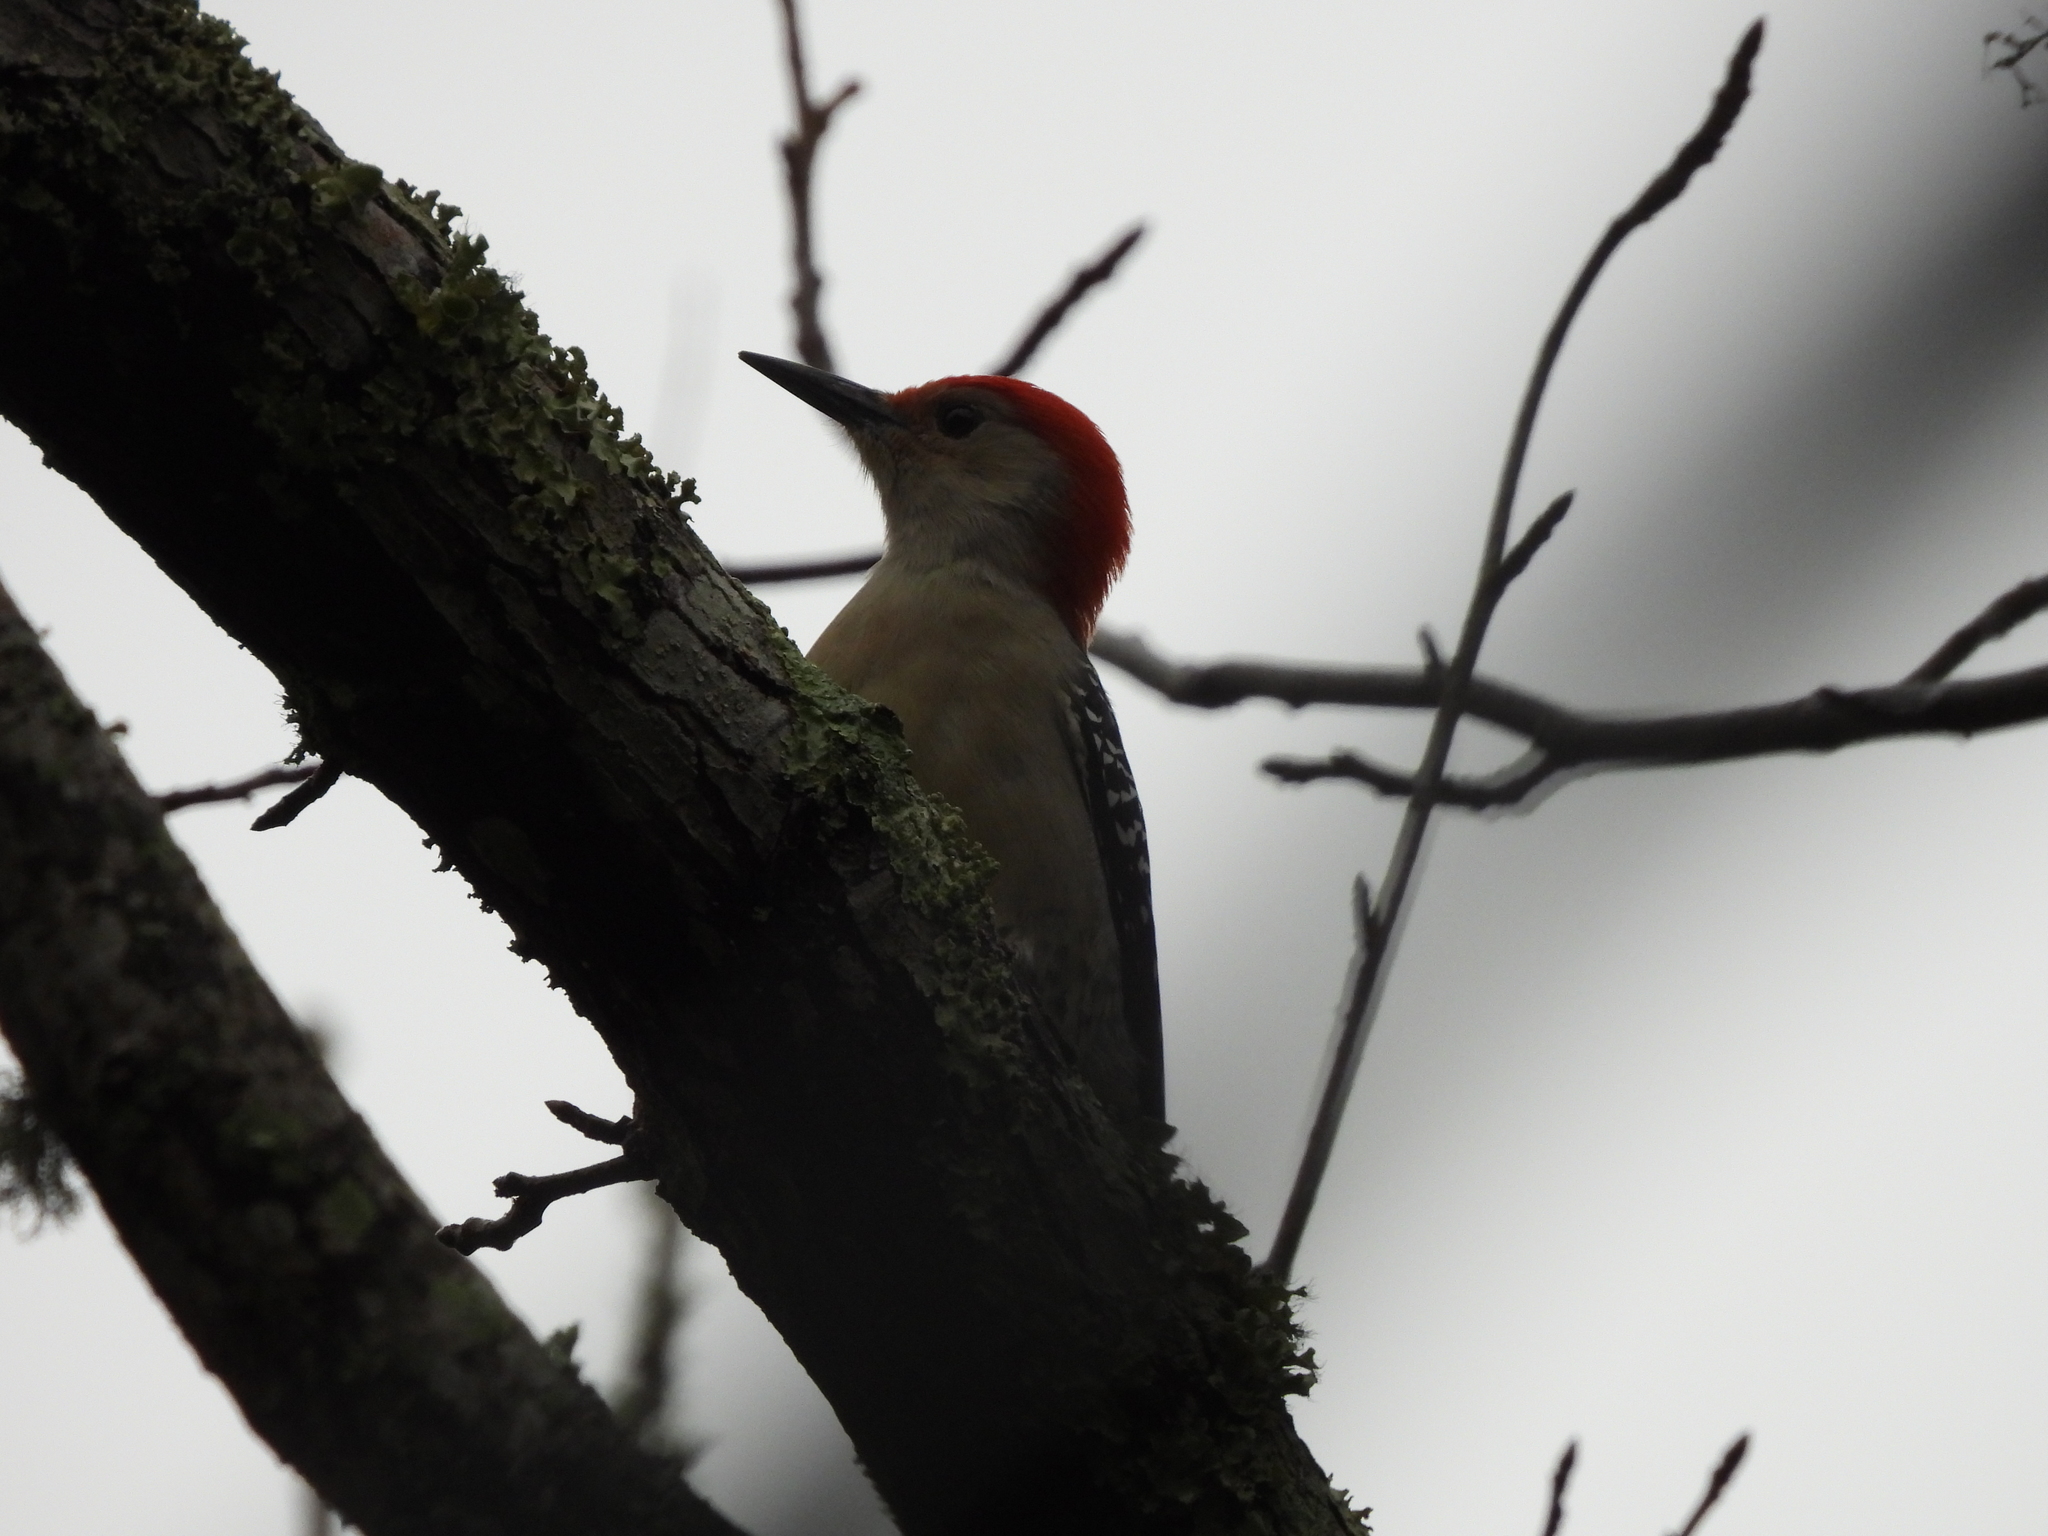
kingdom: Animalia
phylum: Chordata
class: Aves
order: Piciformes
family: Picidae
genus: Melanerpes
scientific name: Melanerpes carolinus
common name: Red-bellied woodpecker
